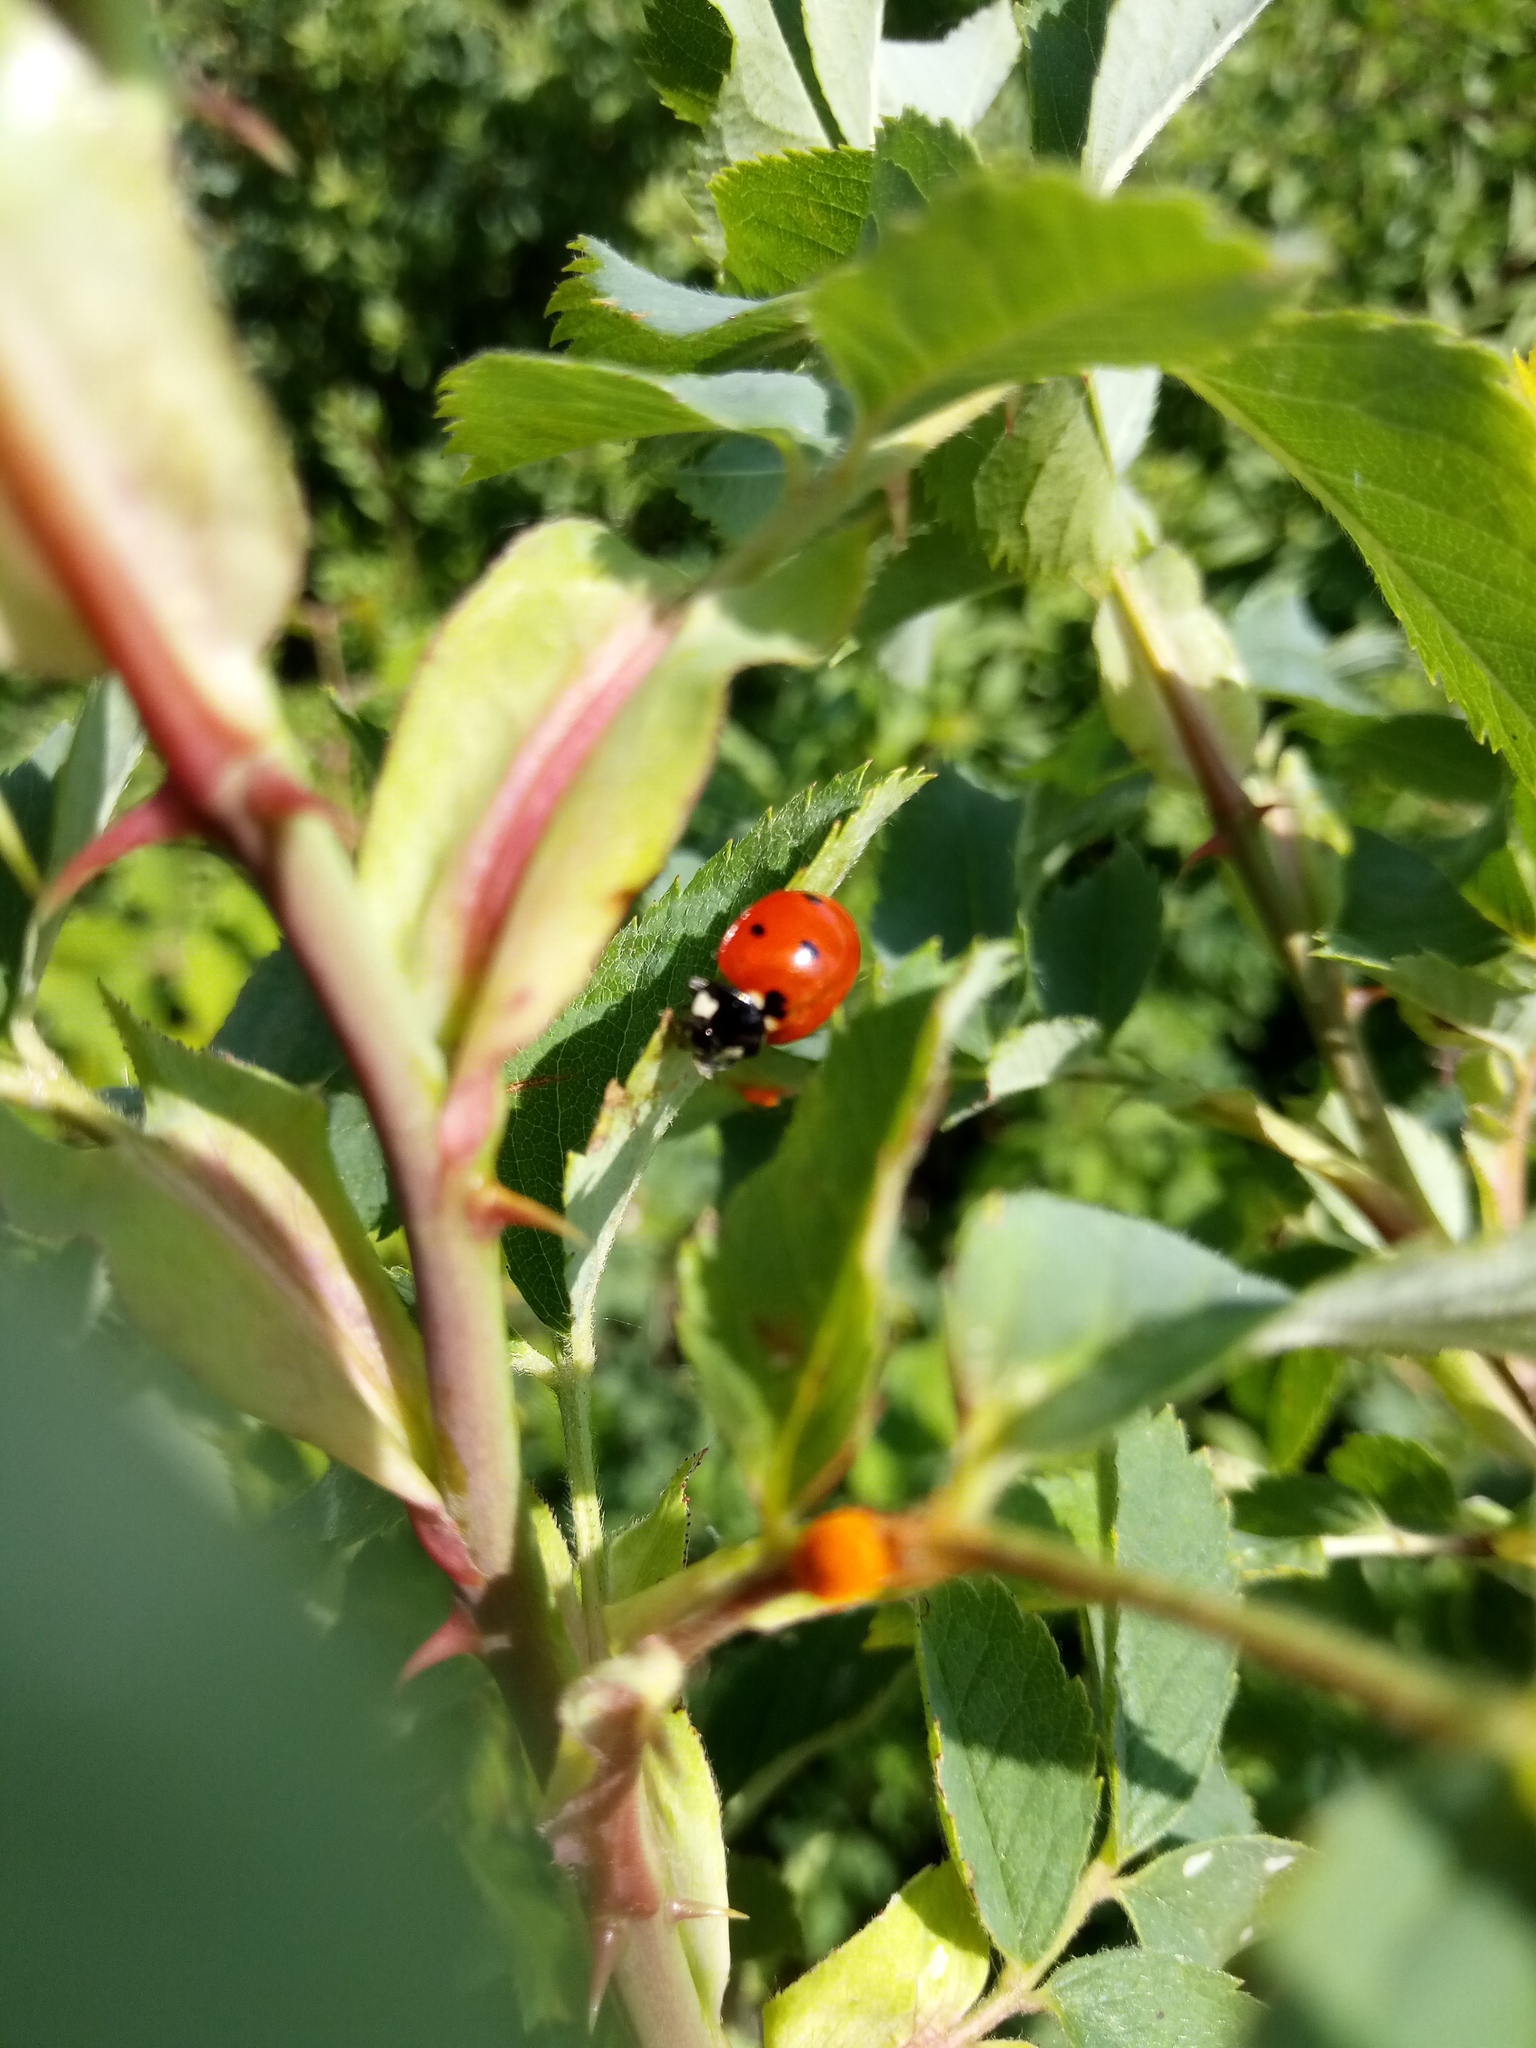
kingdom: Animalia
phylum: Arthropoda
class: Insecta
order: Coleoptera
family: Coccinellidae
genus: Coccinella
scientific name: Coccinella septempunctata
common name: Sevenspotted lady beetle
